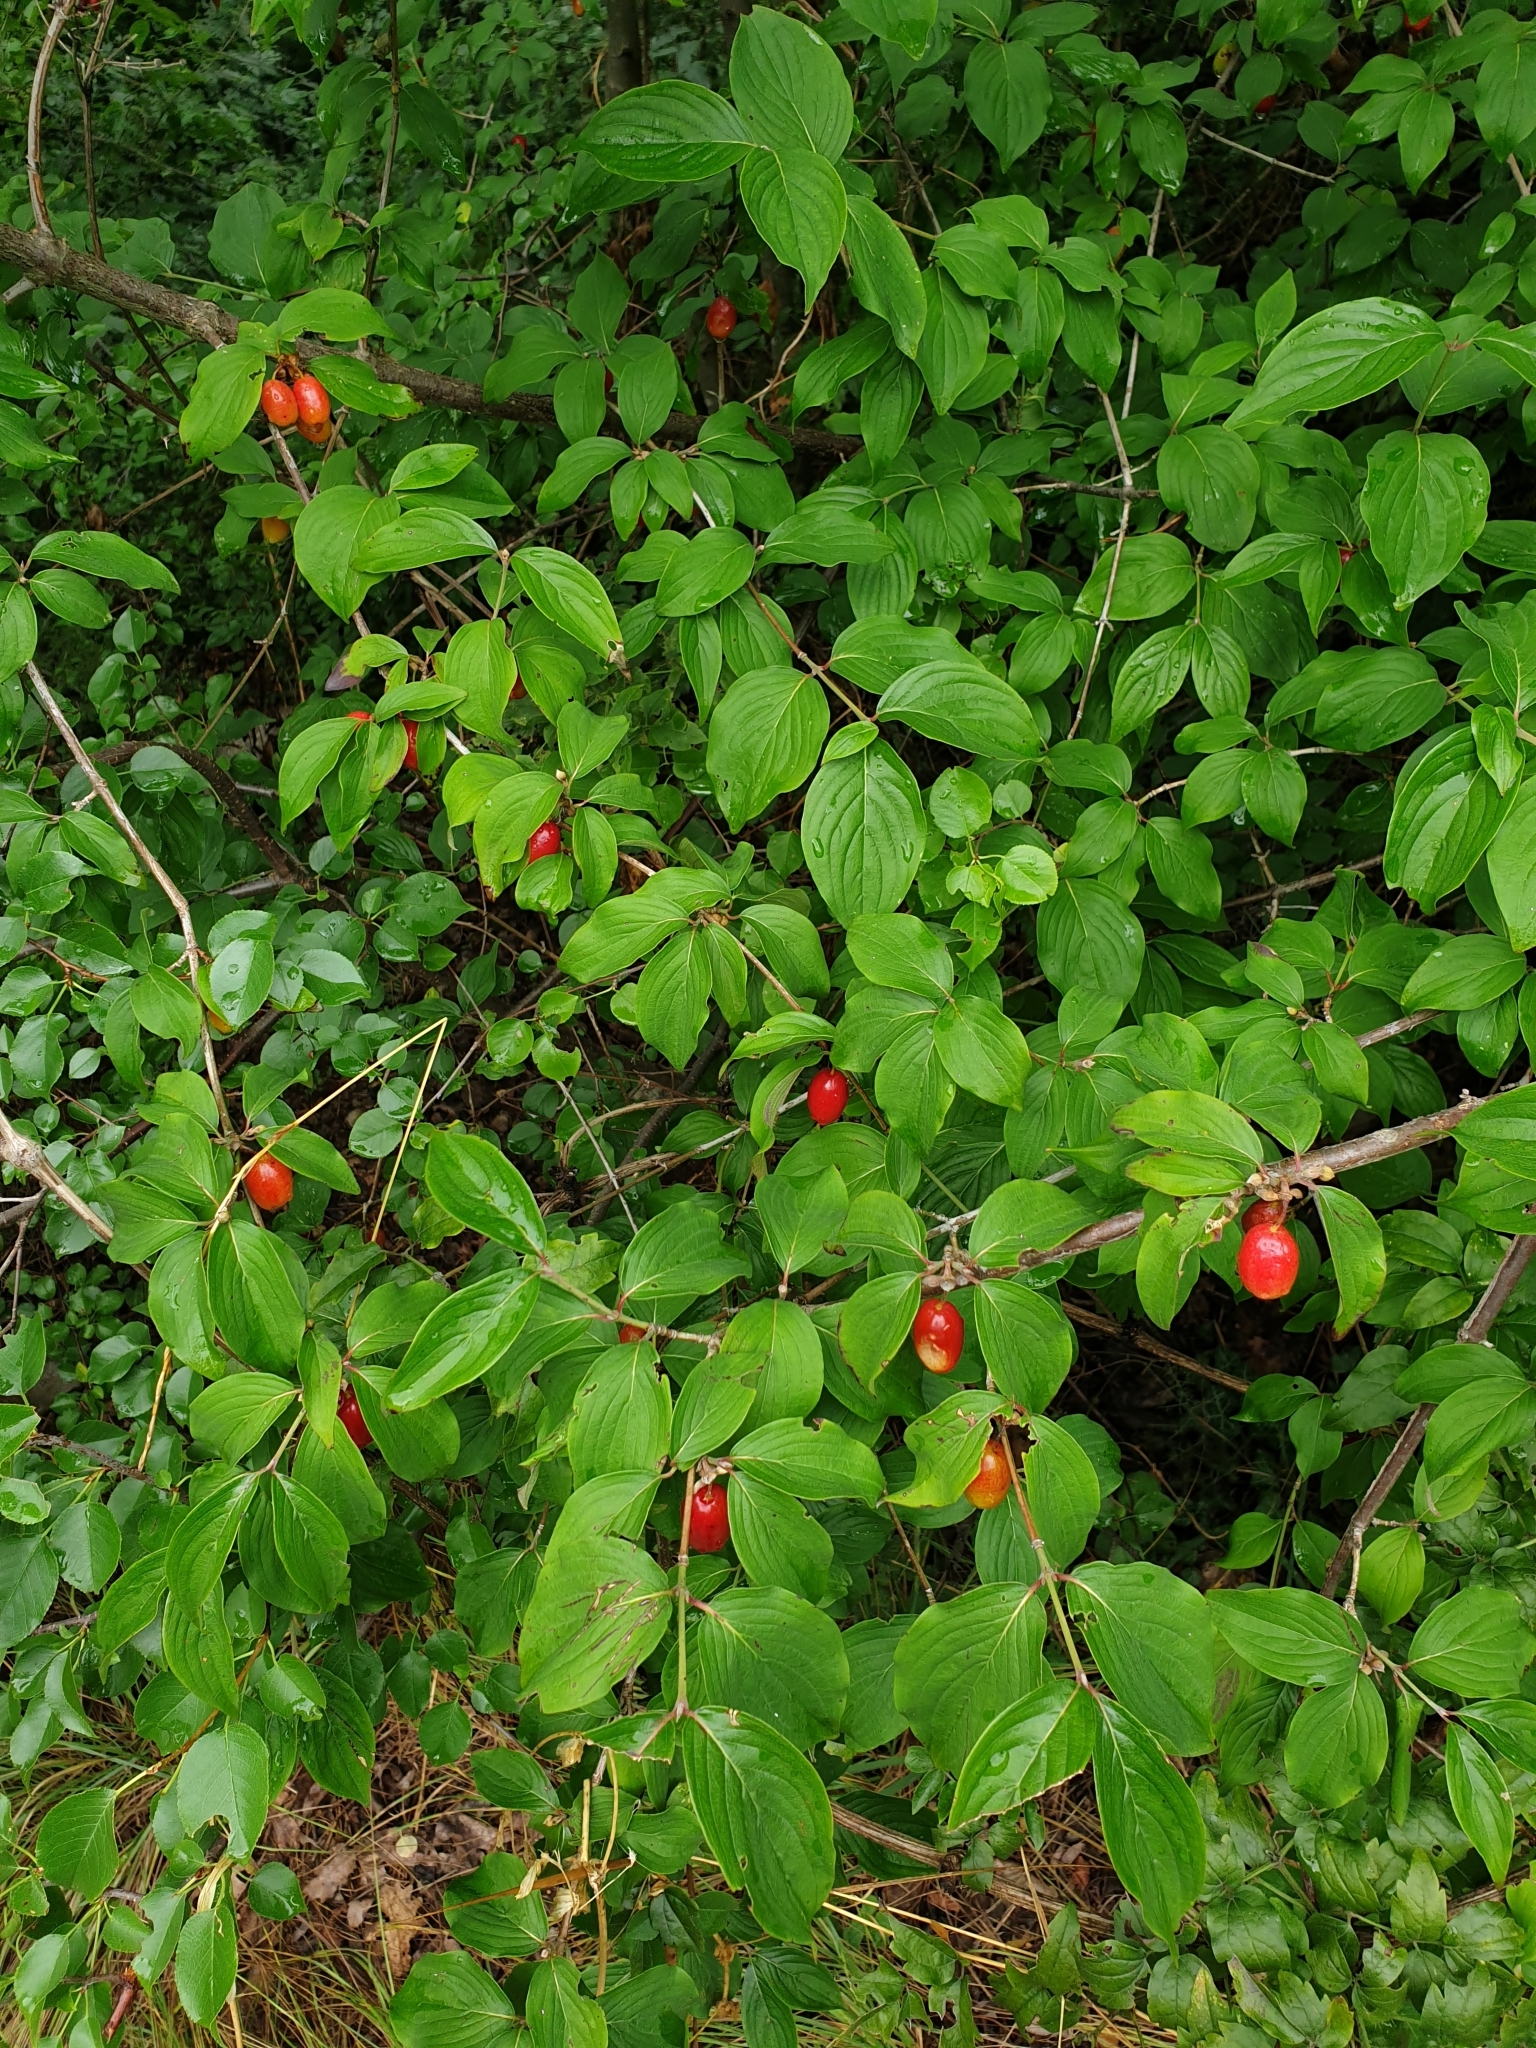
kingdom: Plantae
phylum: Tracheophyta
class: Magnoliopsida
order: Cornales
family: Cornaceae
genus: Cornus
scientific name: Cornus mas
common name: Cornelian-cherry
